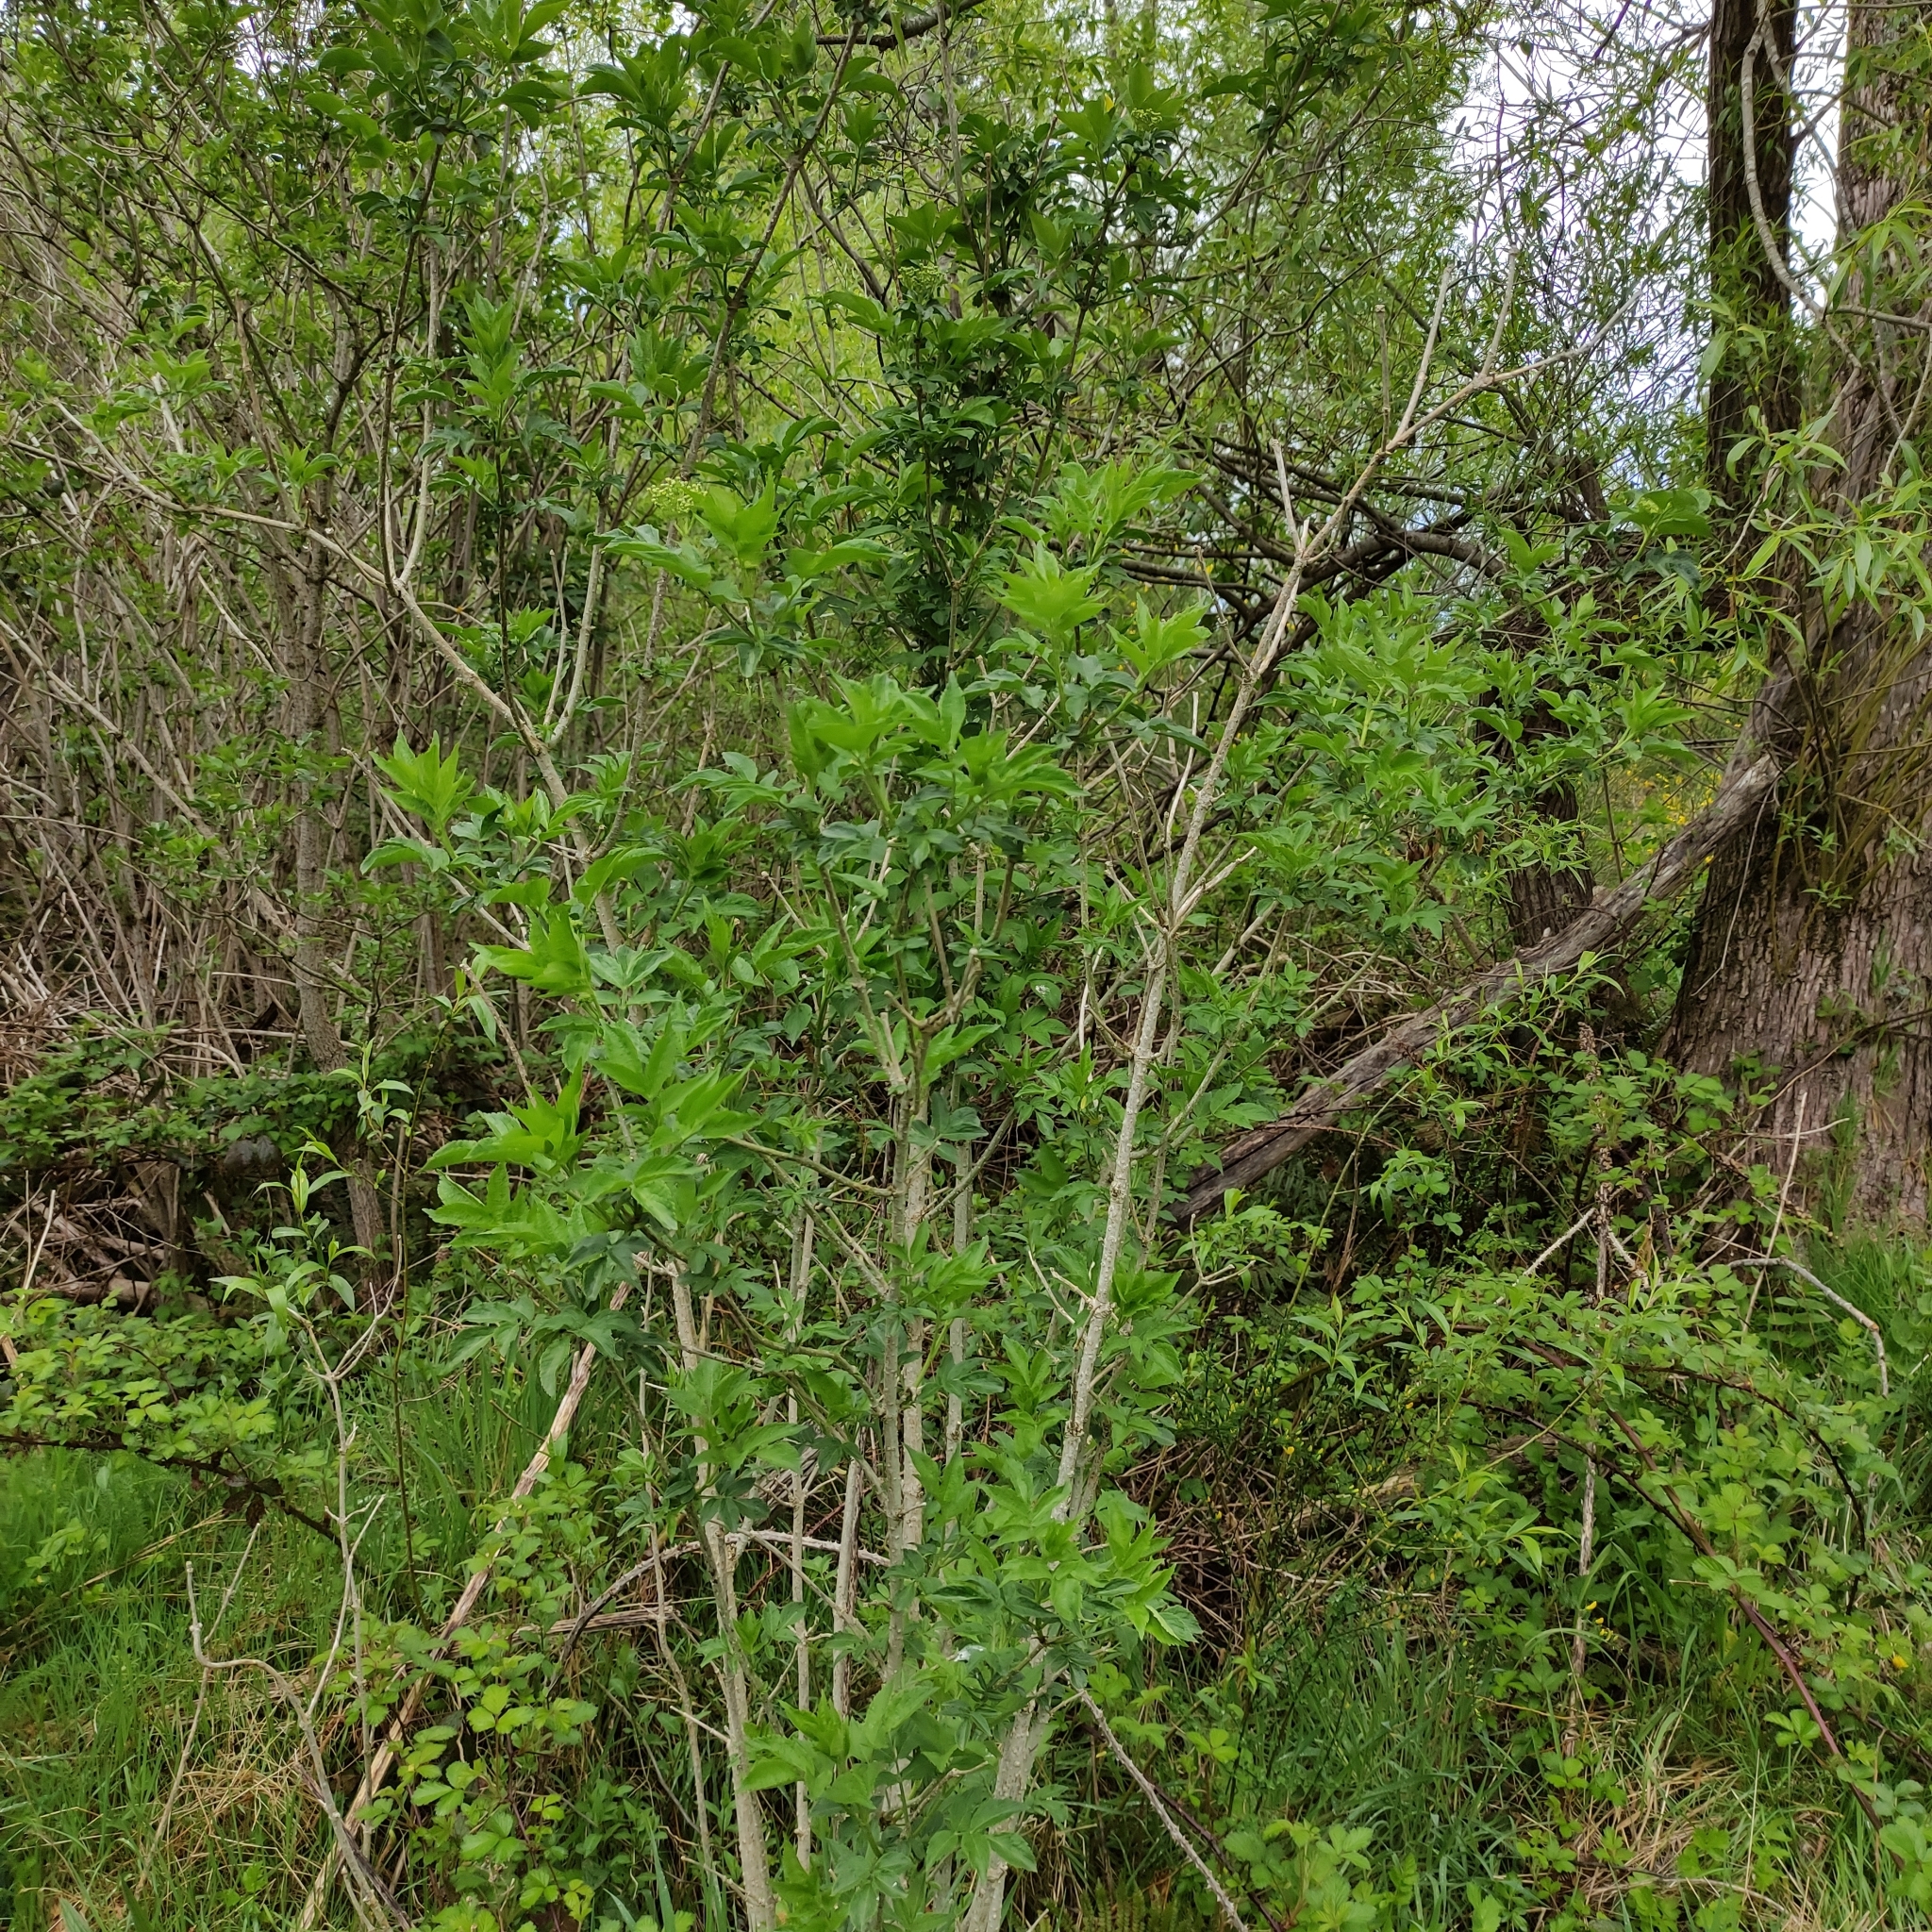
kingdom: Plantae
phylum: Tracheophyta
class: Magnoliopsida
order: Dipsacales
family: Viburnaceae
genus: Sambucus
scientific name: Sambucus nigra
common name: Elder
